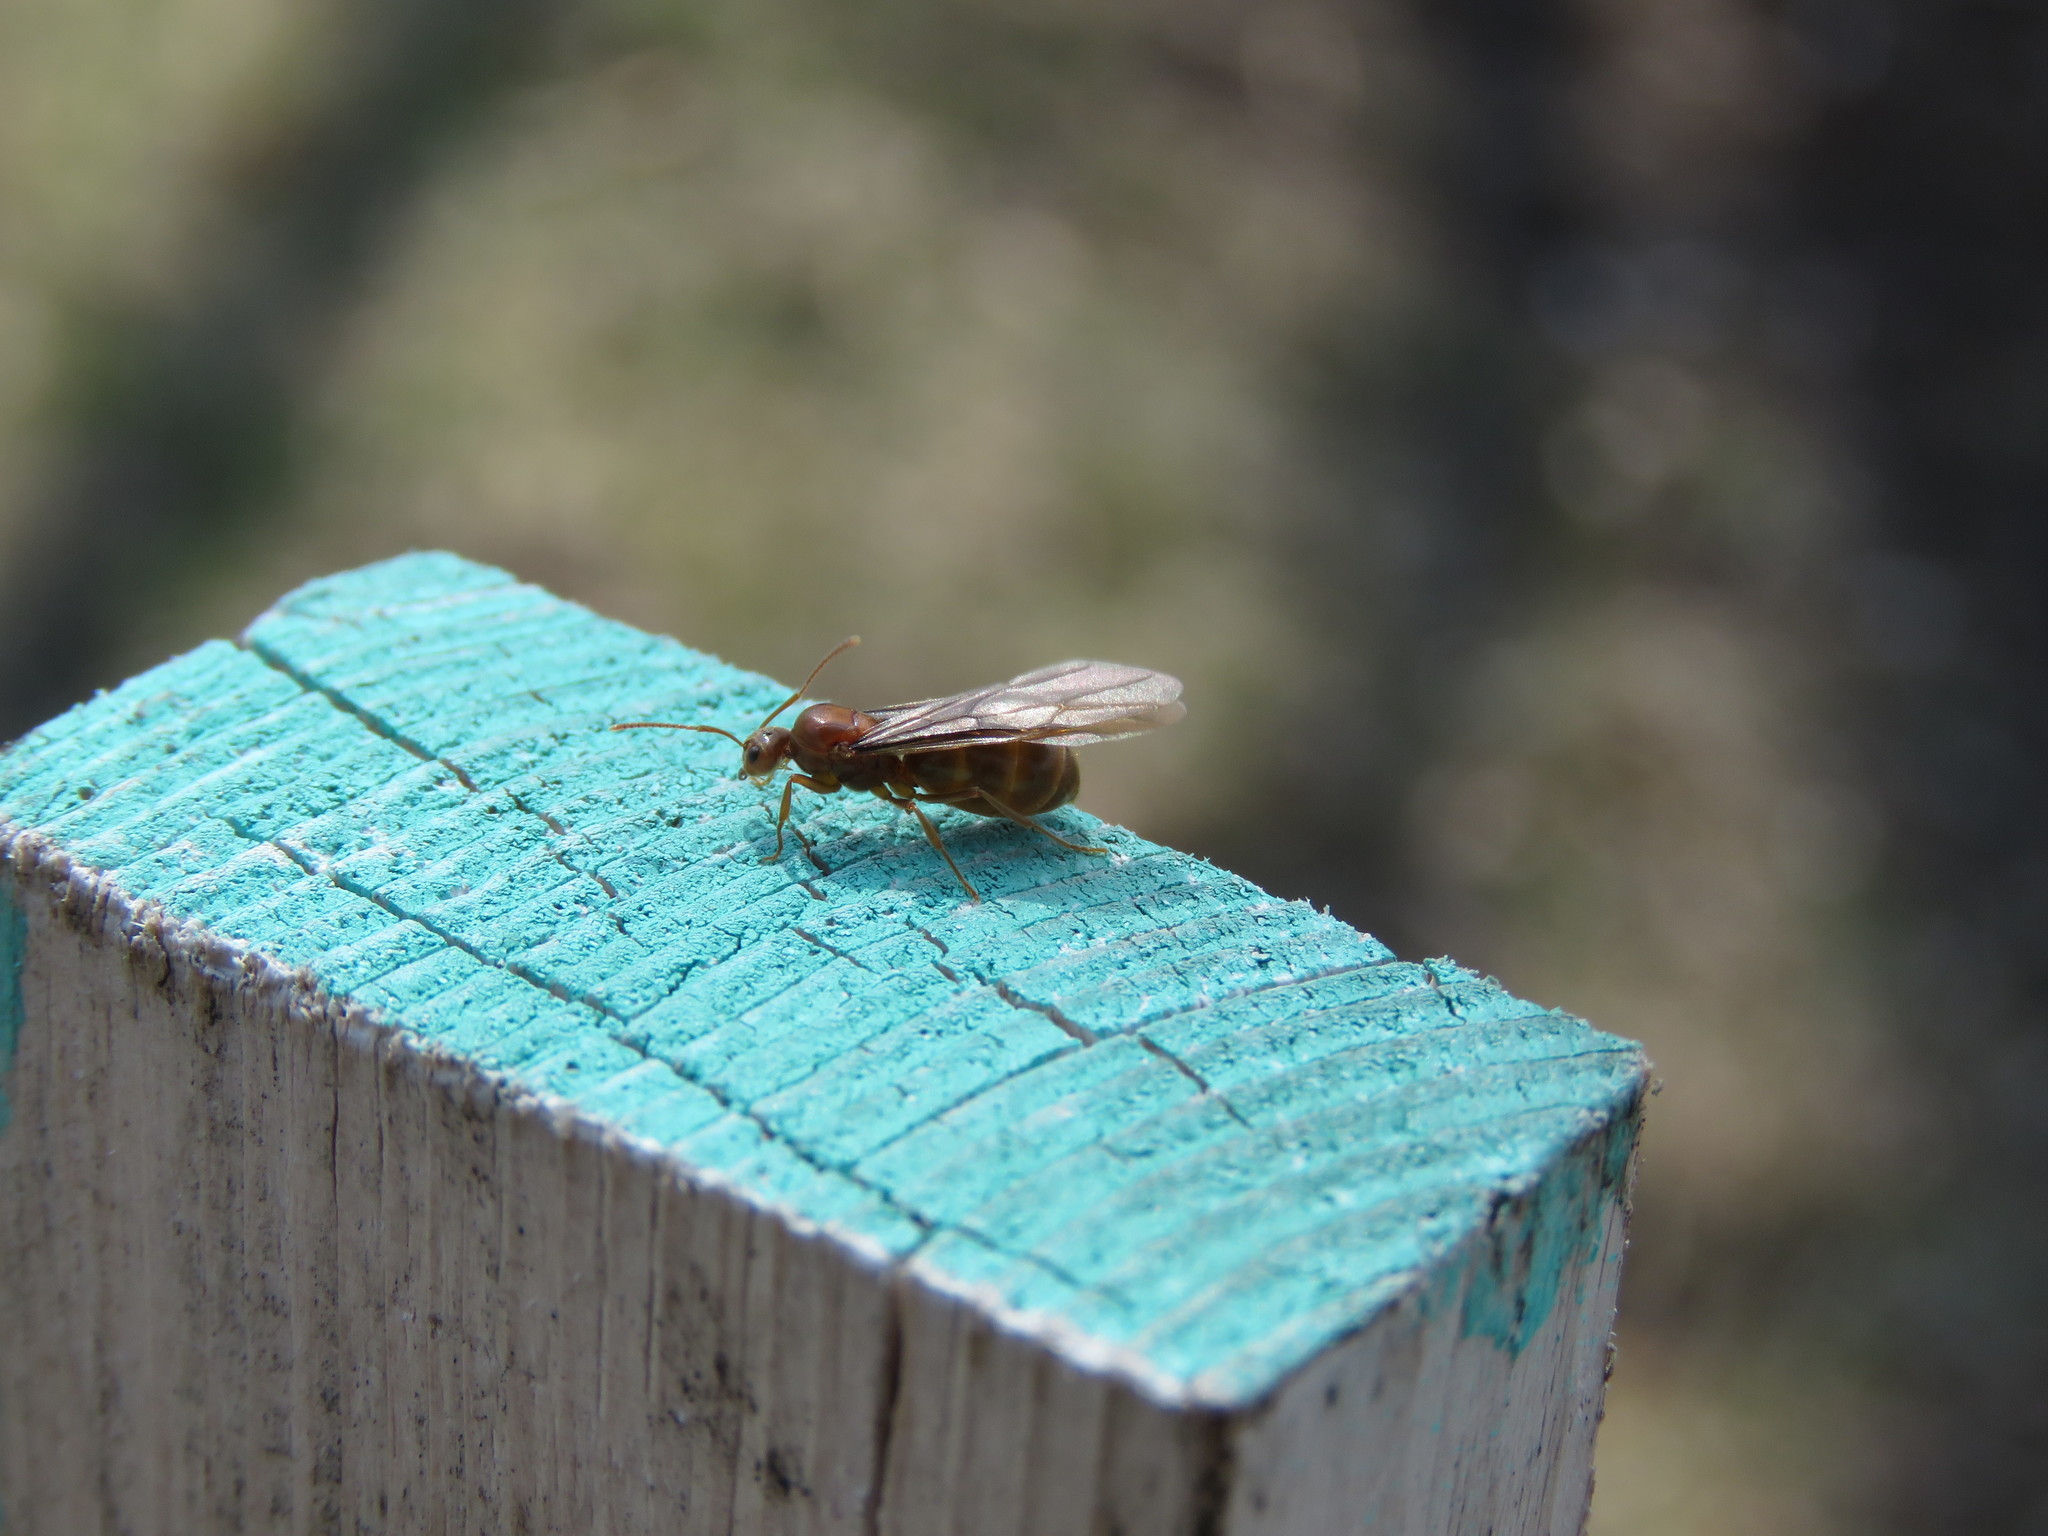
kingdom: Animalia
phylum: Arthropoda
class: Insecta
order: Hymenoptera
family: Formicidae
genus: Prenolepis
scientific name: Prenolepis imparis
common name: Small honey ant
